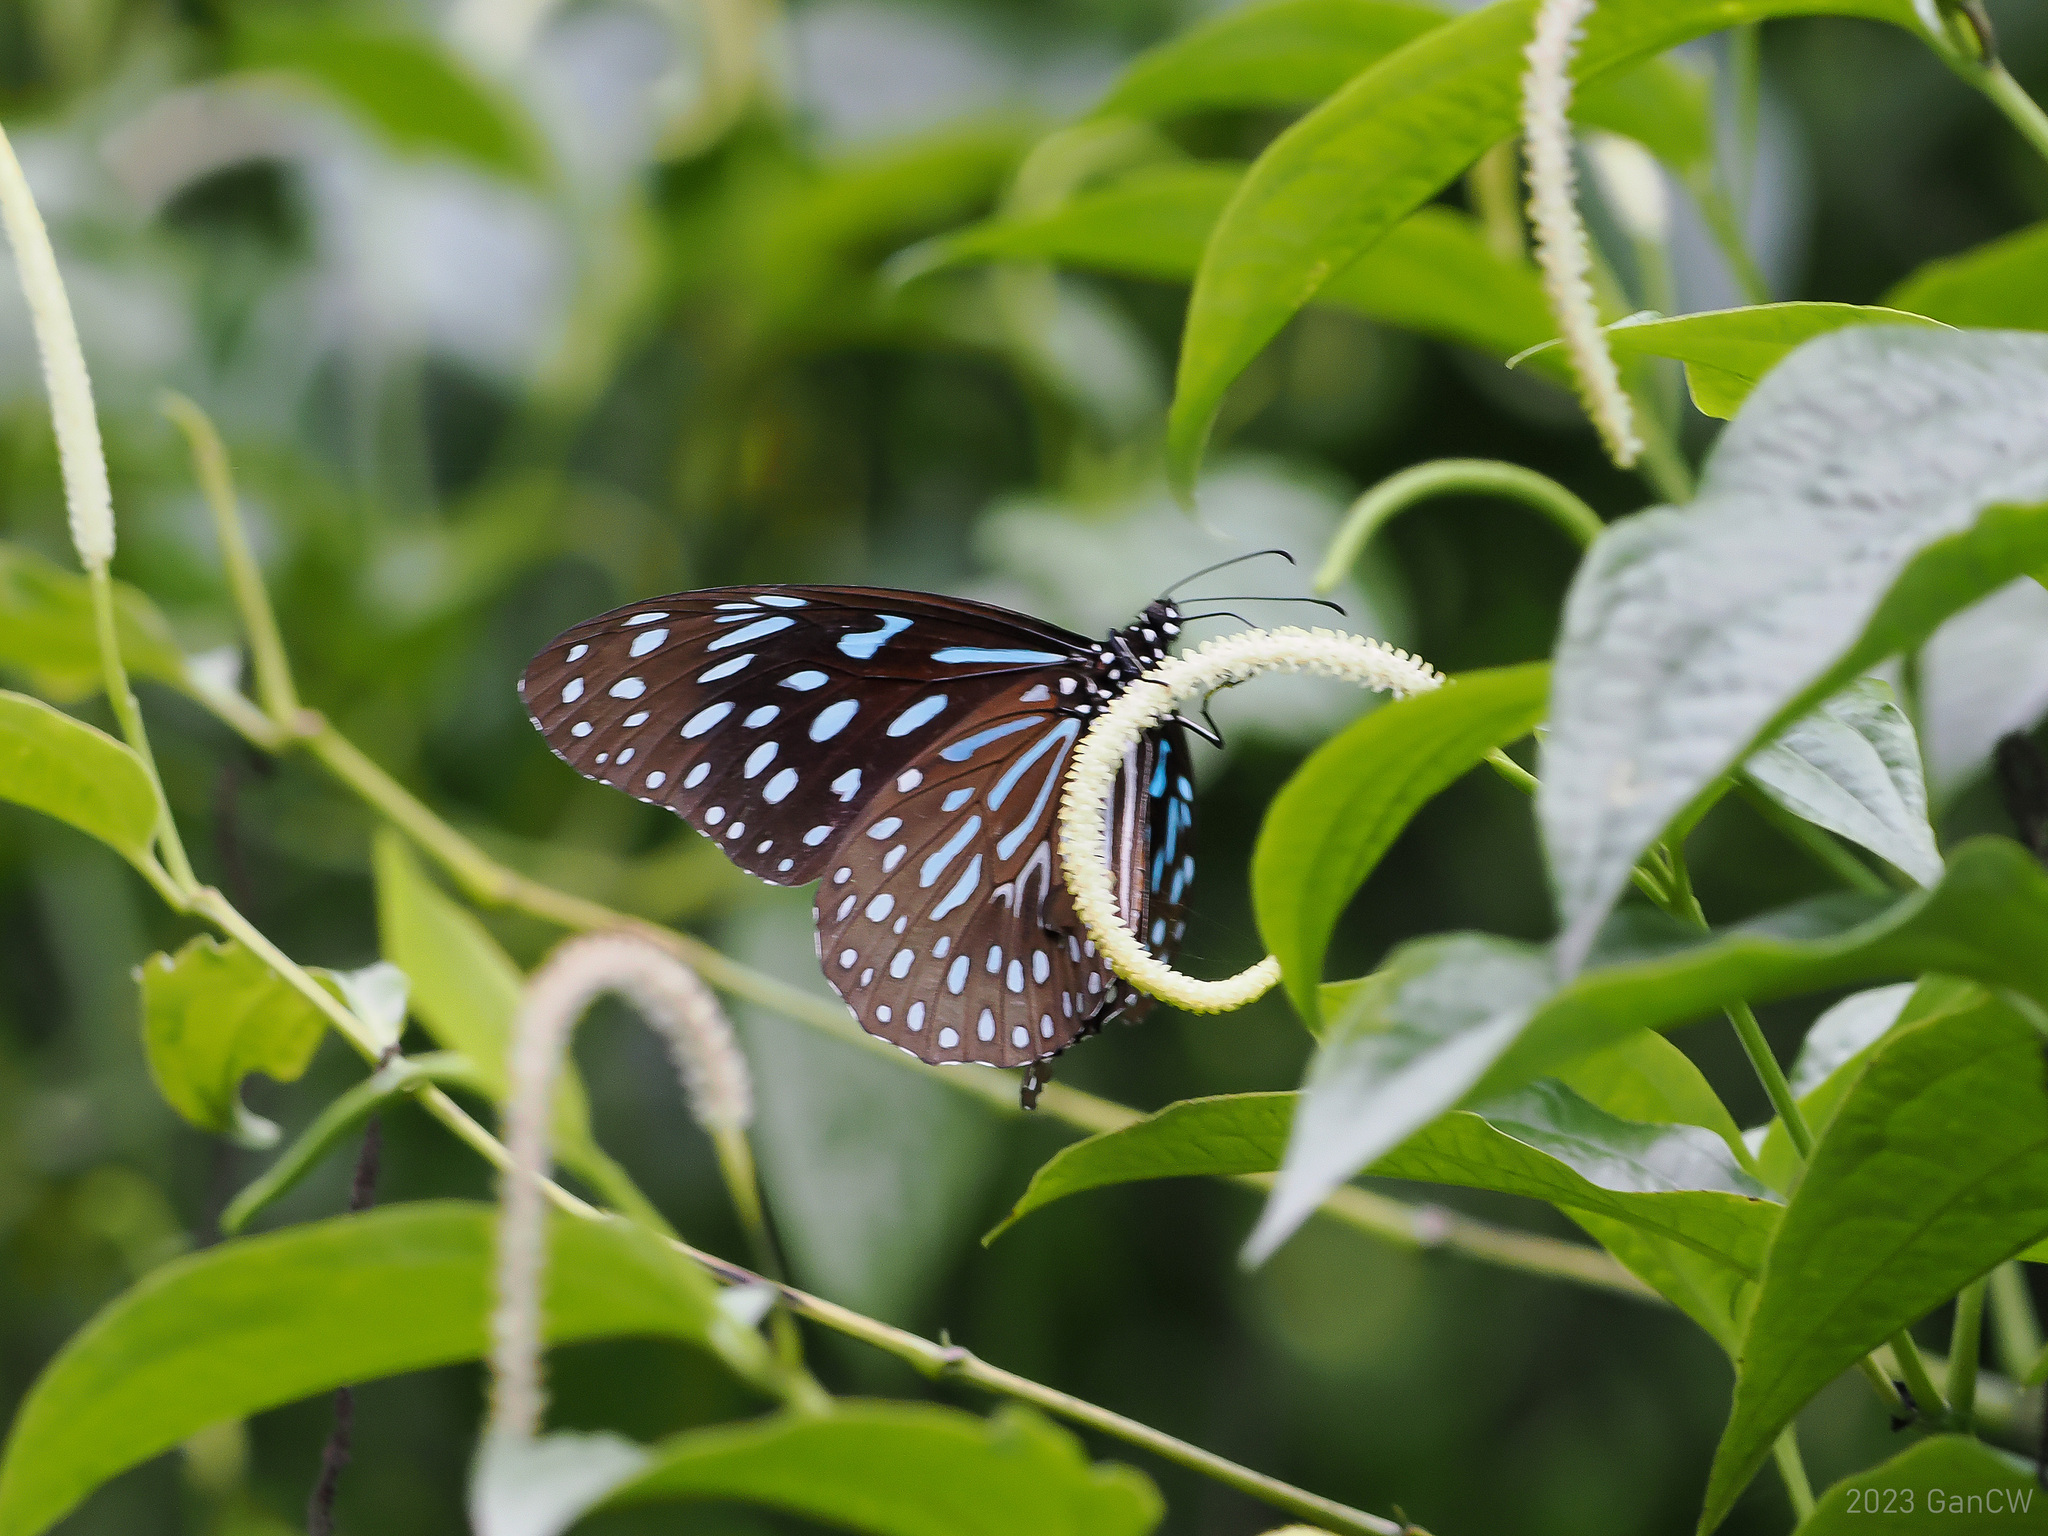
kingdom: Animalia
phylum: Arthropoda
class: Insecta
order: Lepidoptera
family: Nymphalidae
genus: Tirumala
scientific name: Tirumala septentrionis
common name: Dark blue tiger butterfly
